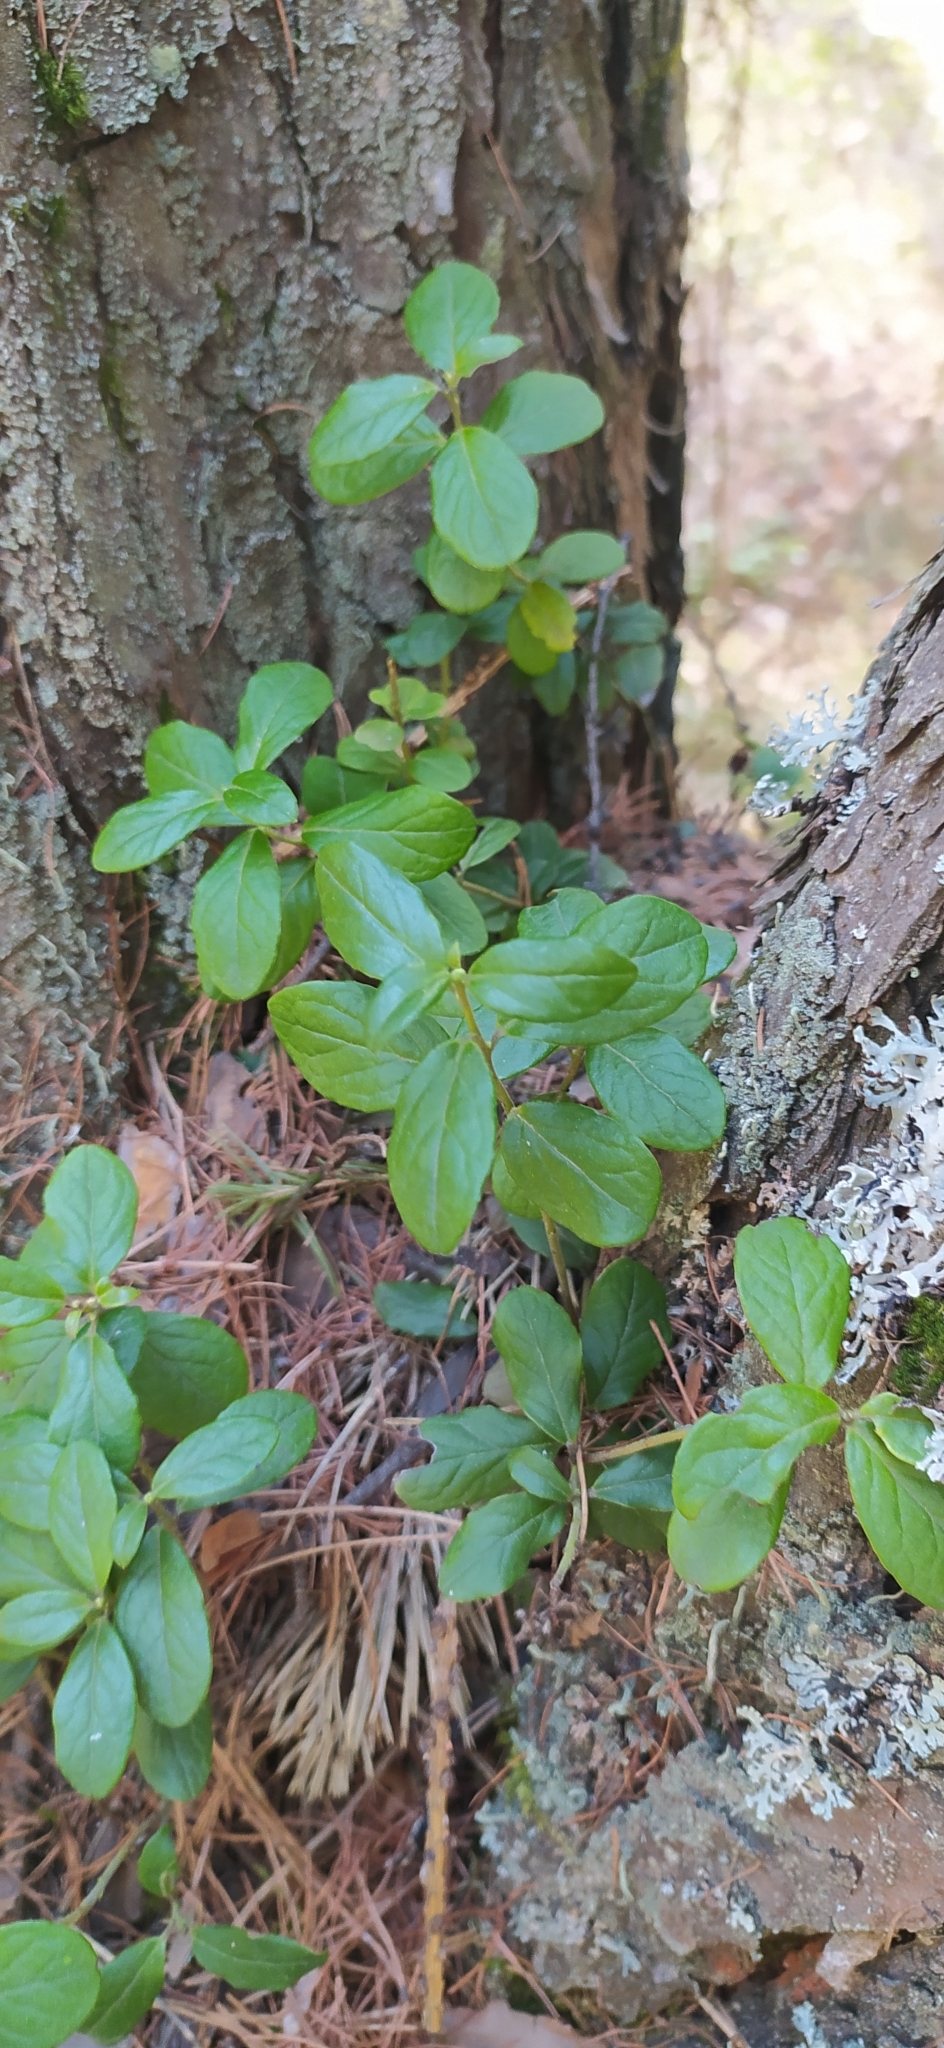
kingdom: Plantae
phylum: Tracheophyta
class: Magnoliopsida
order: Ericales
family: Ericaceae
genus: Vaccinium
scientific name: Vaccinium vitis-idaea
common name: Cowberry
